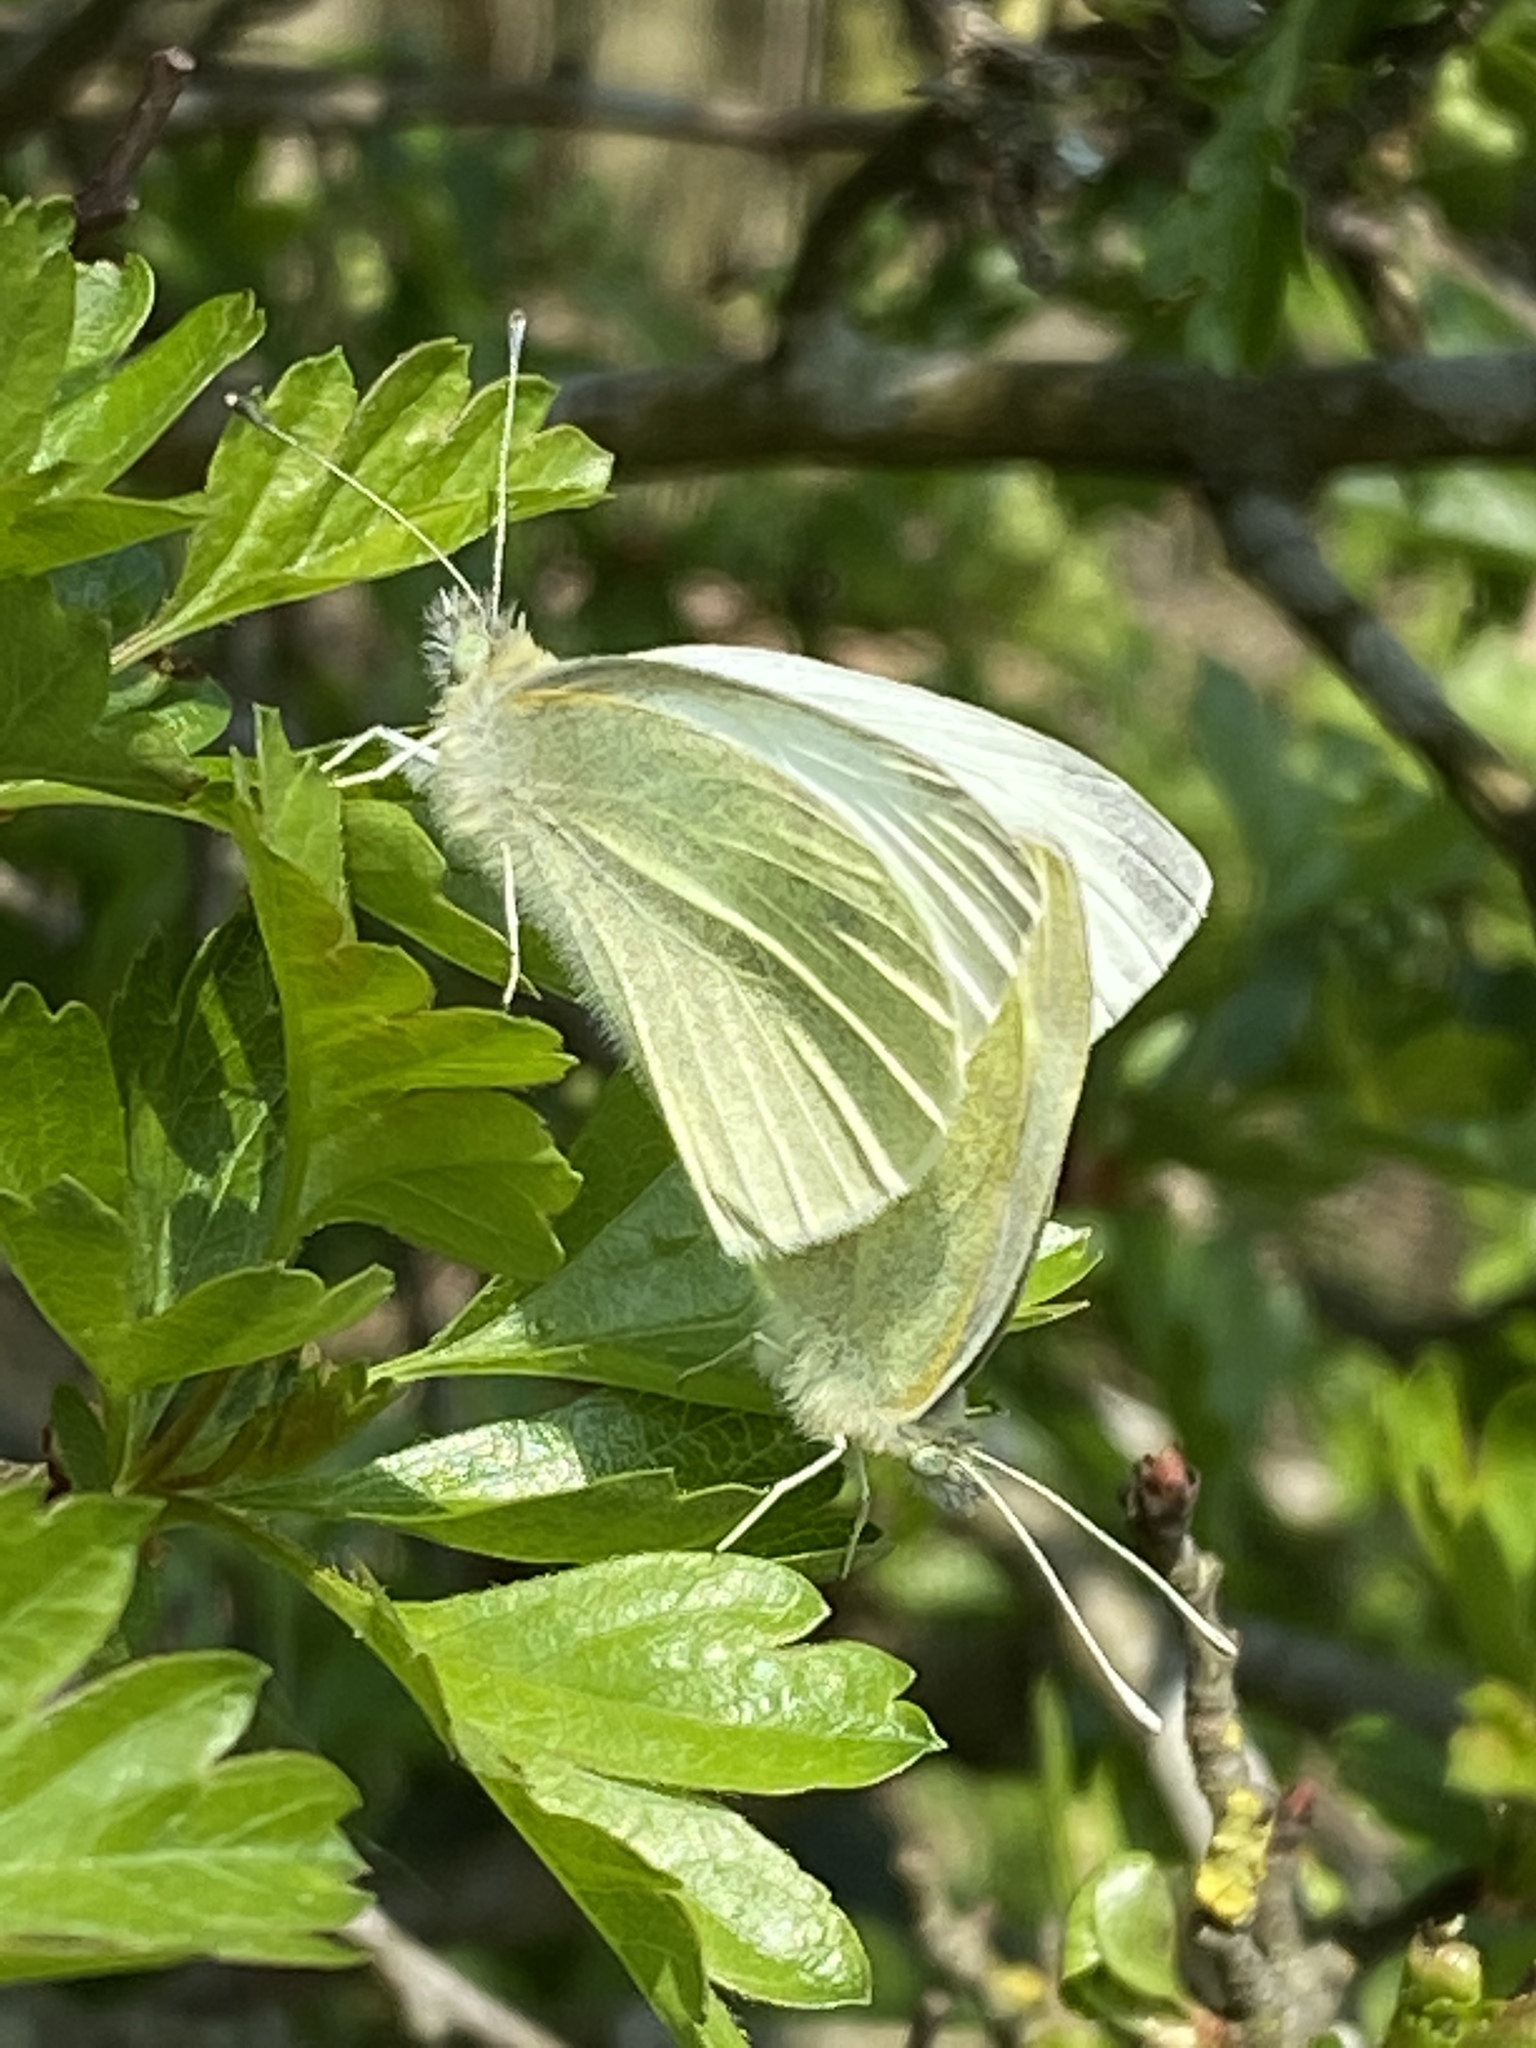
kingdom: Animalia
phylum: Arthropoda
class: Insecta
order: Lepidoptera
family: Pieridae
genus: Pieris
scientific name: Pieris rapae
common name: Small white
